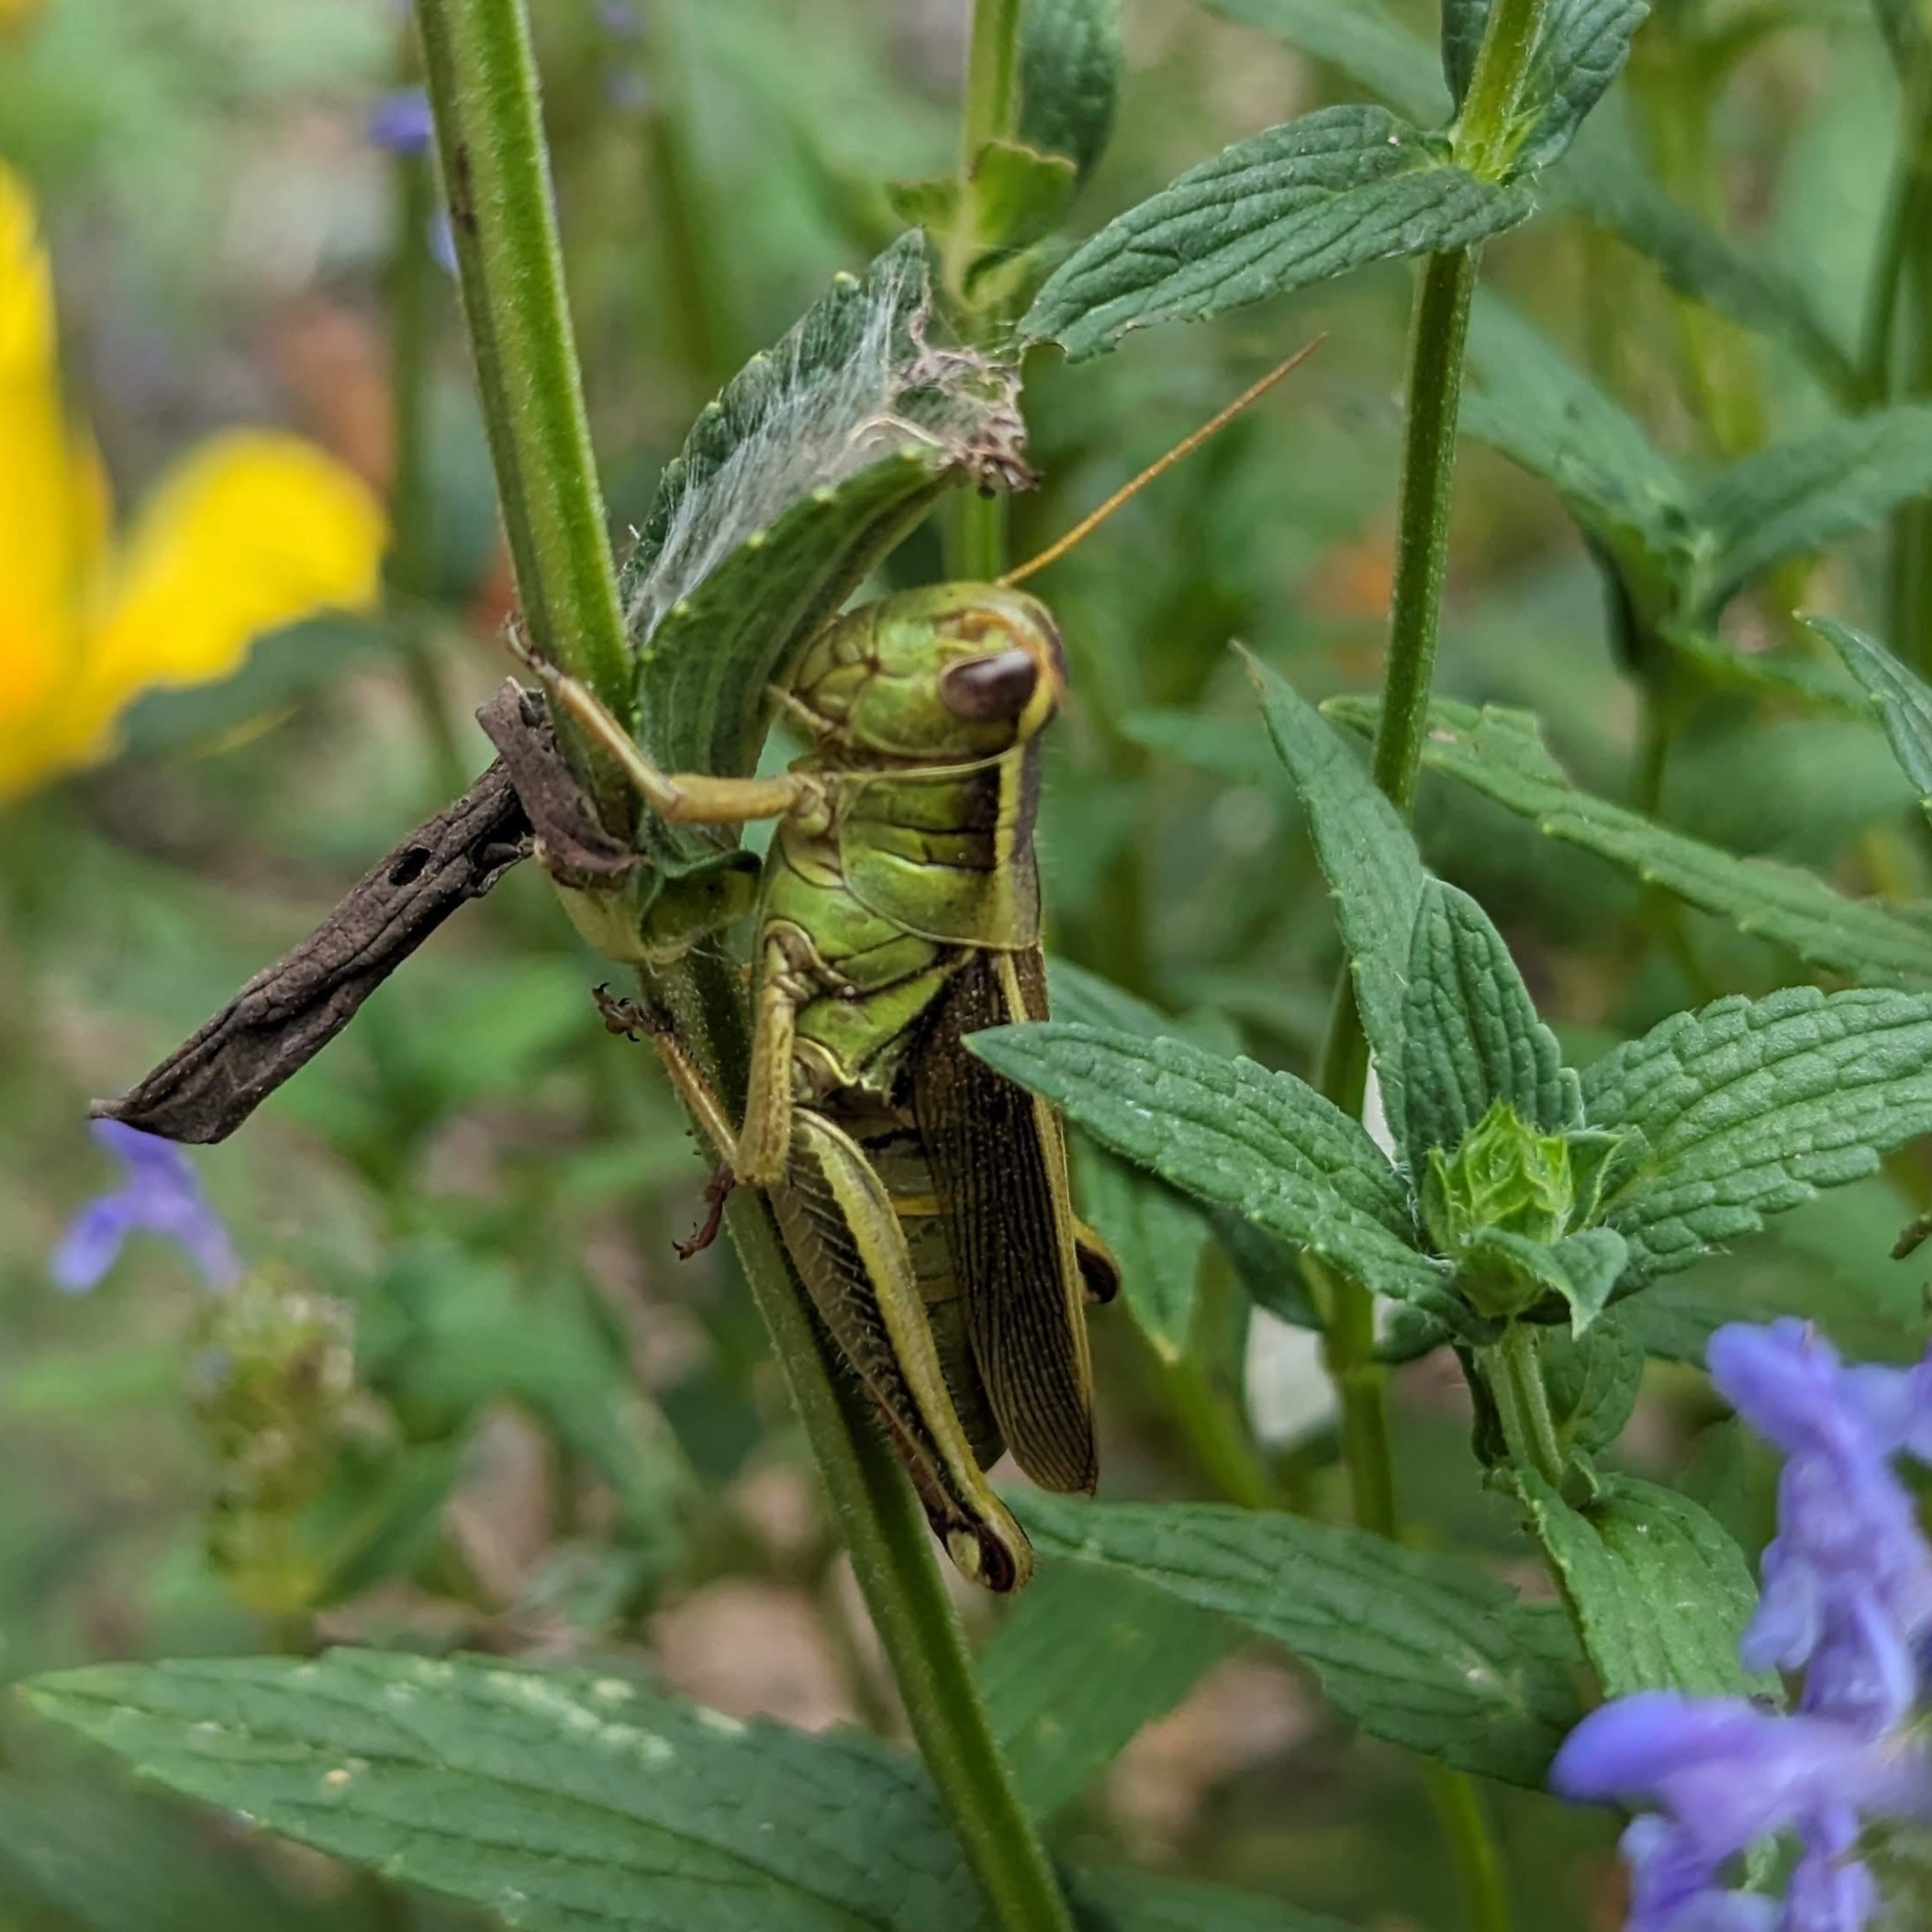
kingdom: Animalia
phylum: Arthropoda
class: Insecta
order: Orthoptera
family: Acrididae
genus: Melanoplus
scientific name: Melanoplus bivittatus
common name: Two-striped grasshopper
